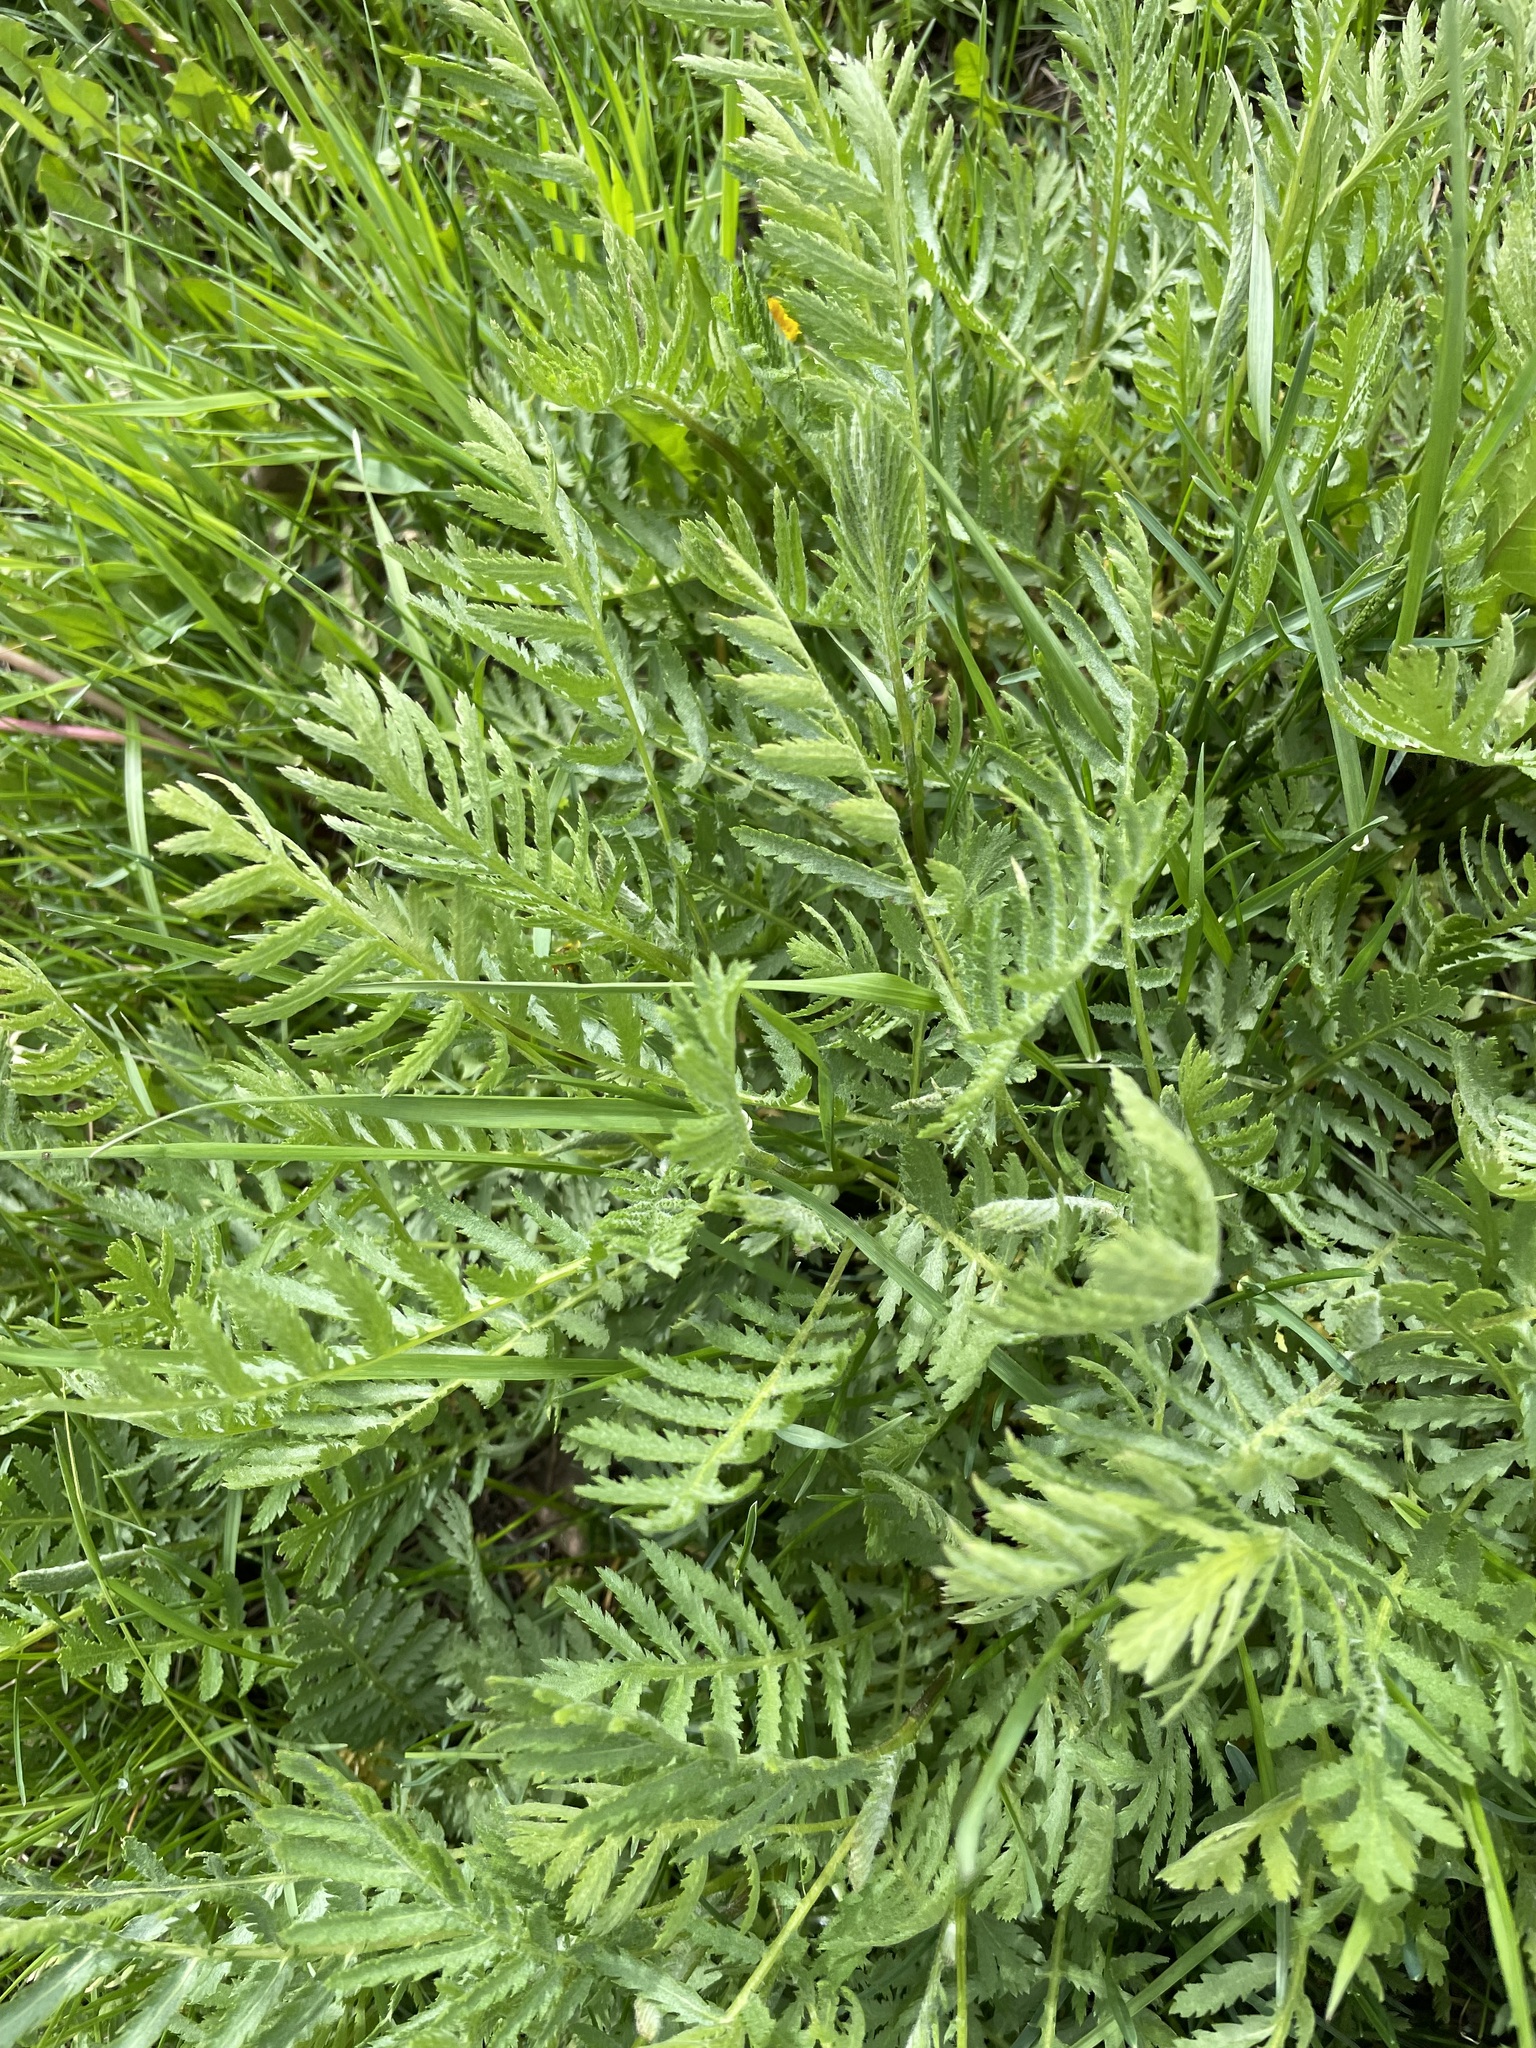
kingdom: Plantae
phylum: Tracheophyta
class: Magnoliopsida
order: Asterales
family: Asteraceae
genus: Tanacetum
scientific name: Tanacetum vulgare
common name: Common tansy
